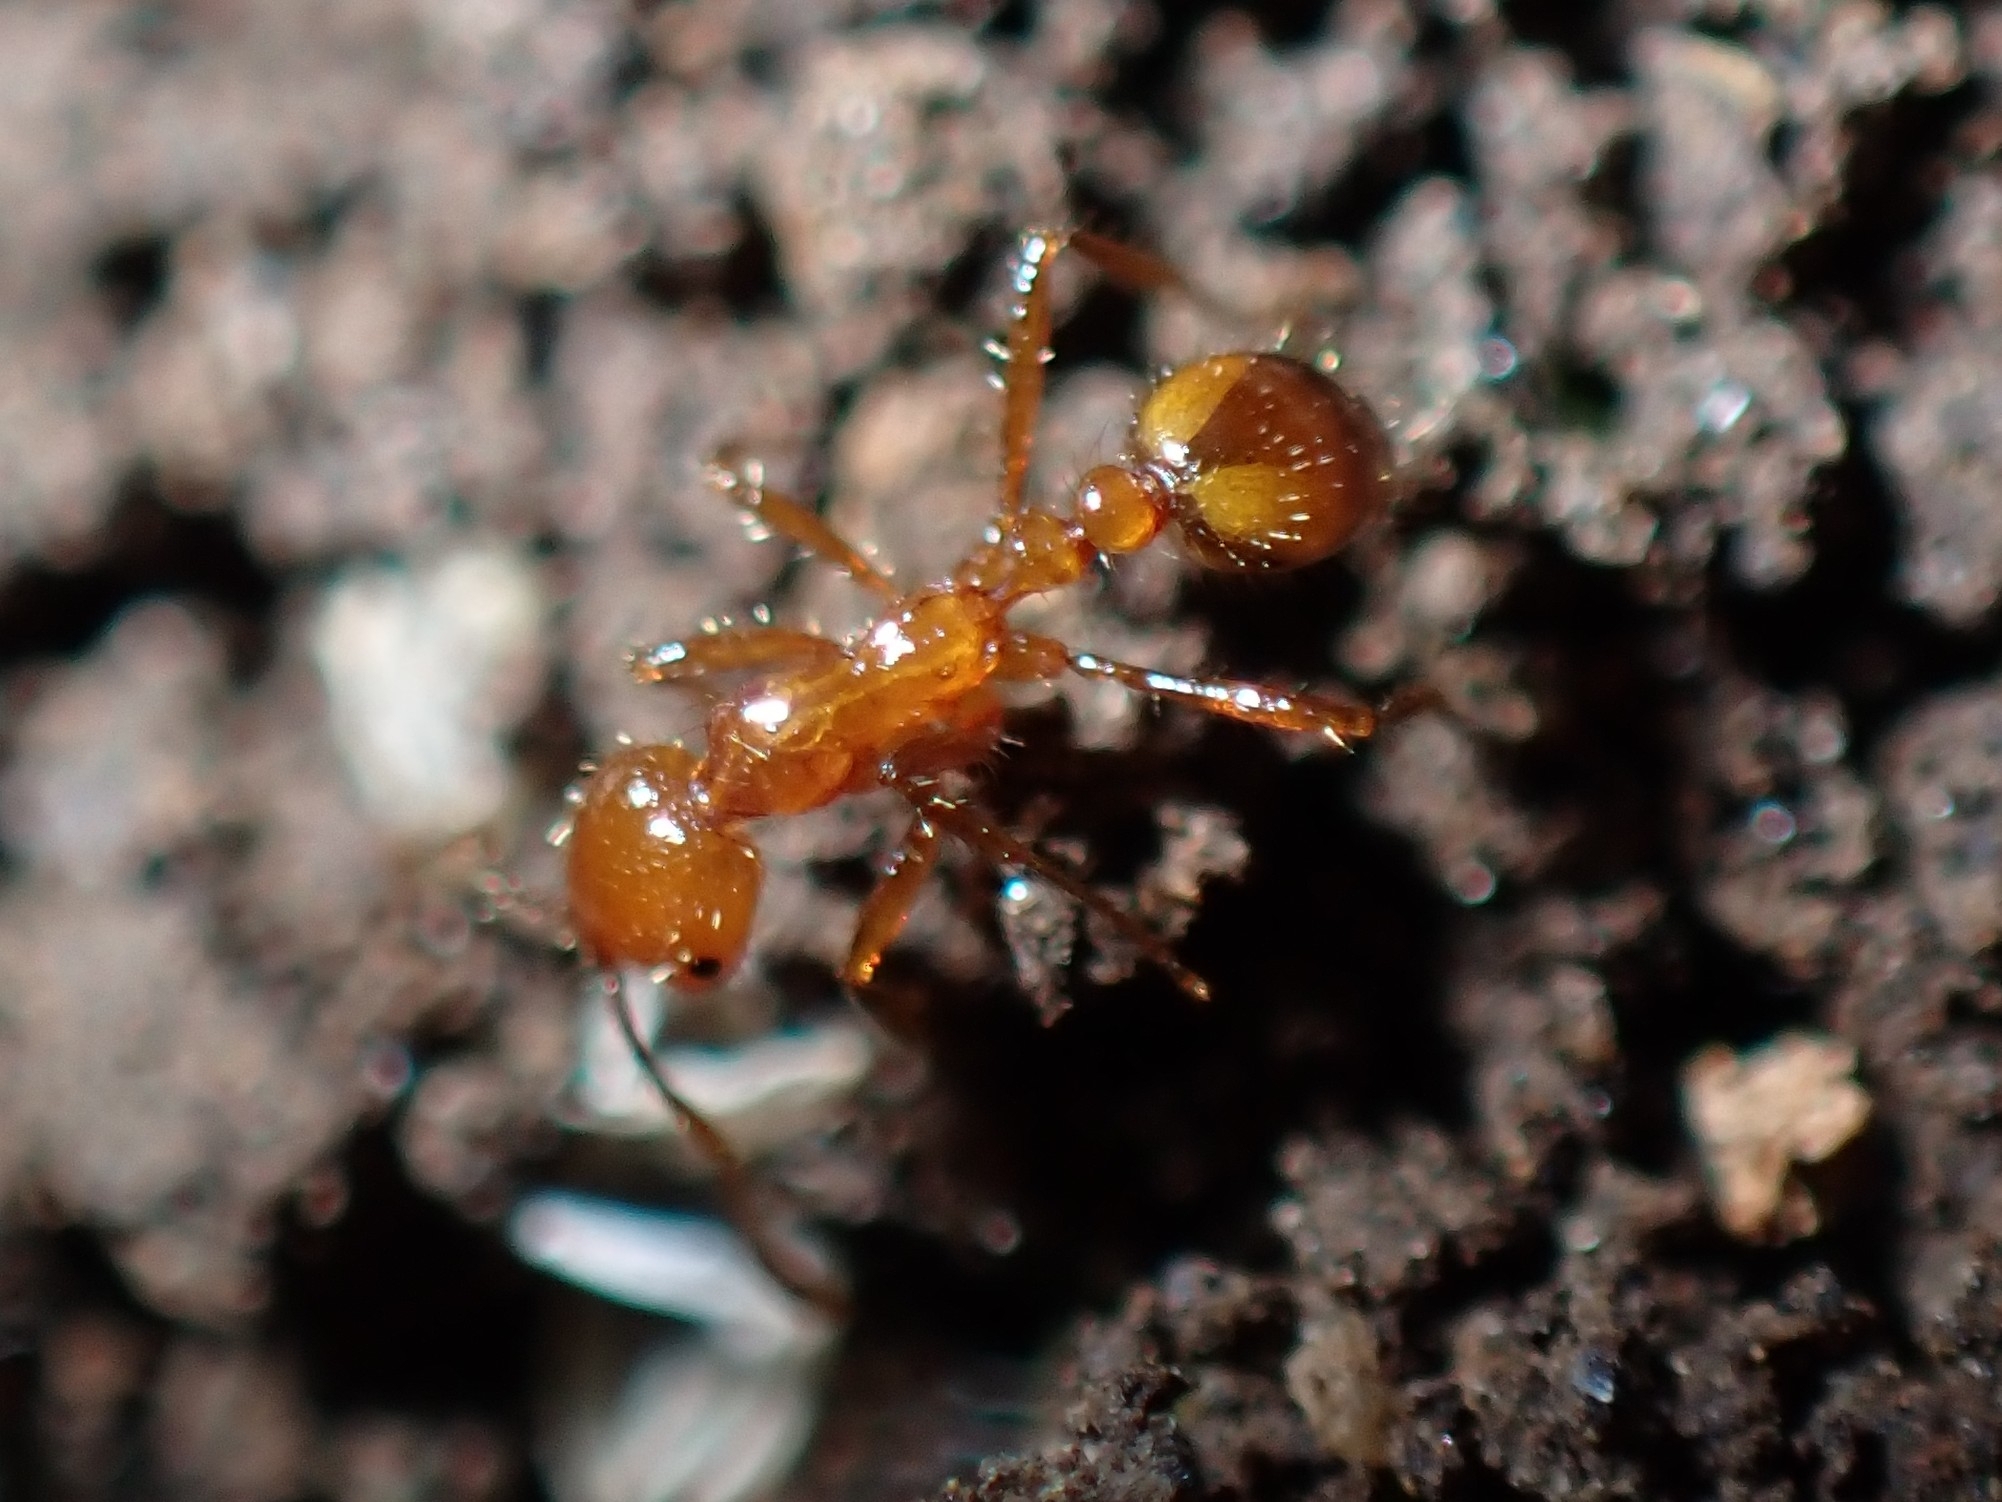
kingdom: Animalia
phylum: Arthropoda
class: Insecta
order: Hymenoptera
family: Formicidae
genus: Solenopsis
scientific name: Solenopsis geminata
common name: Tropical fire ant
